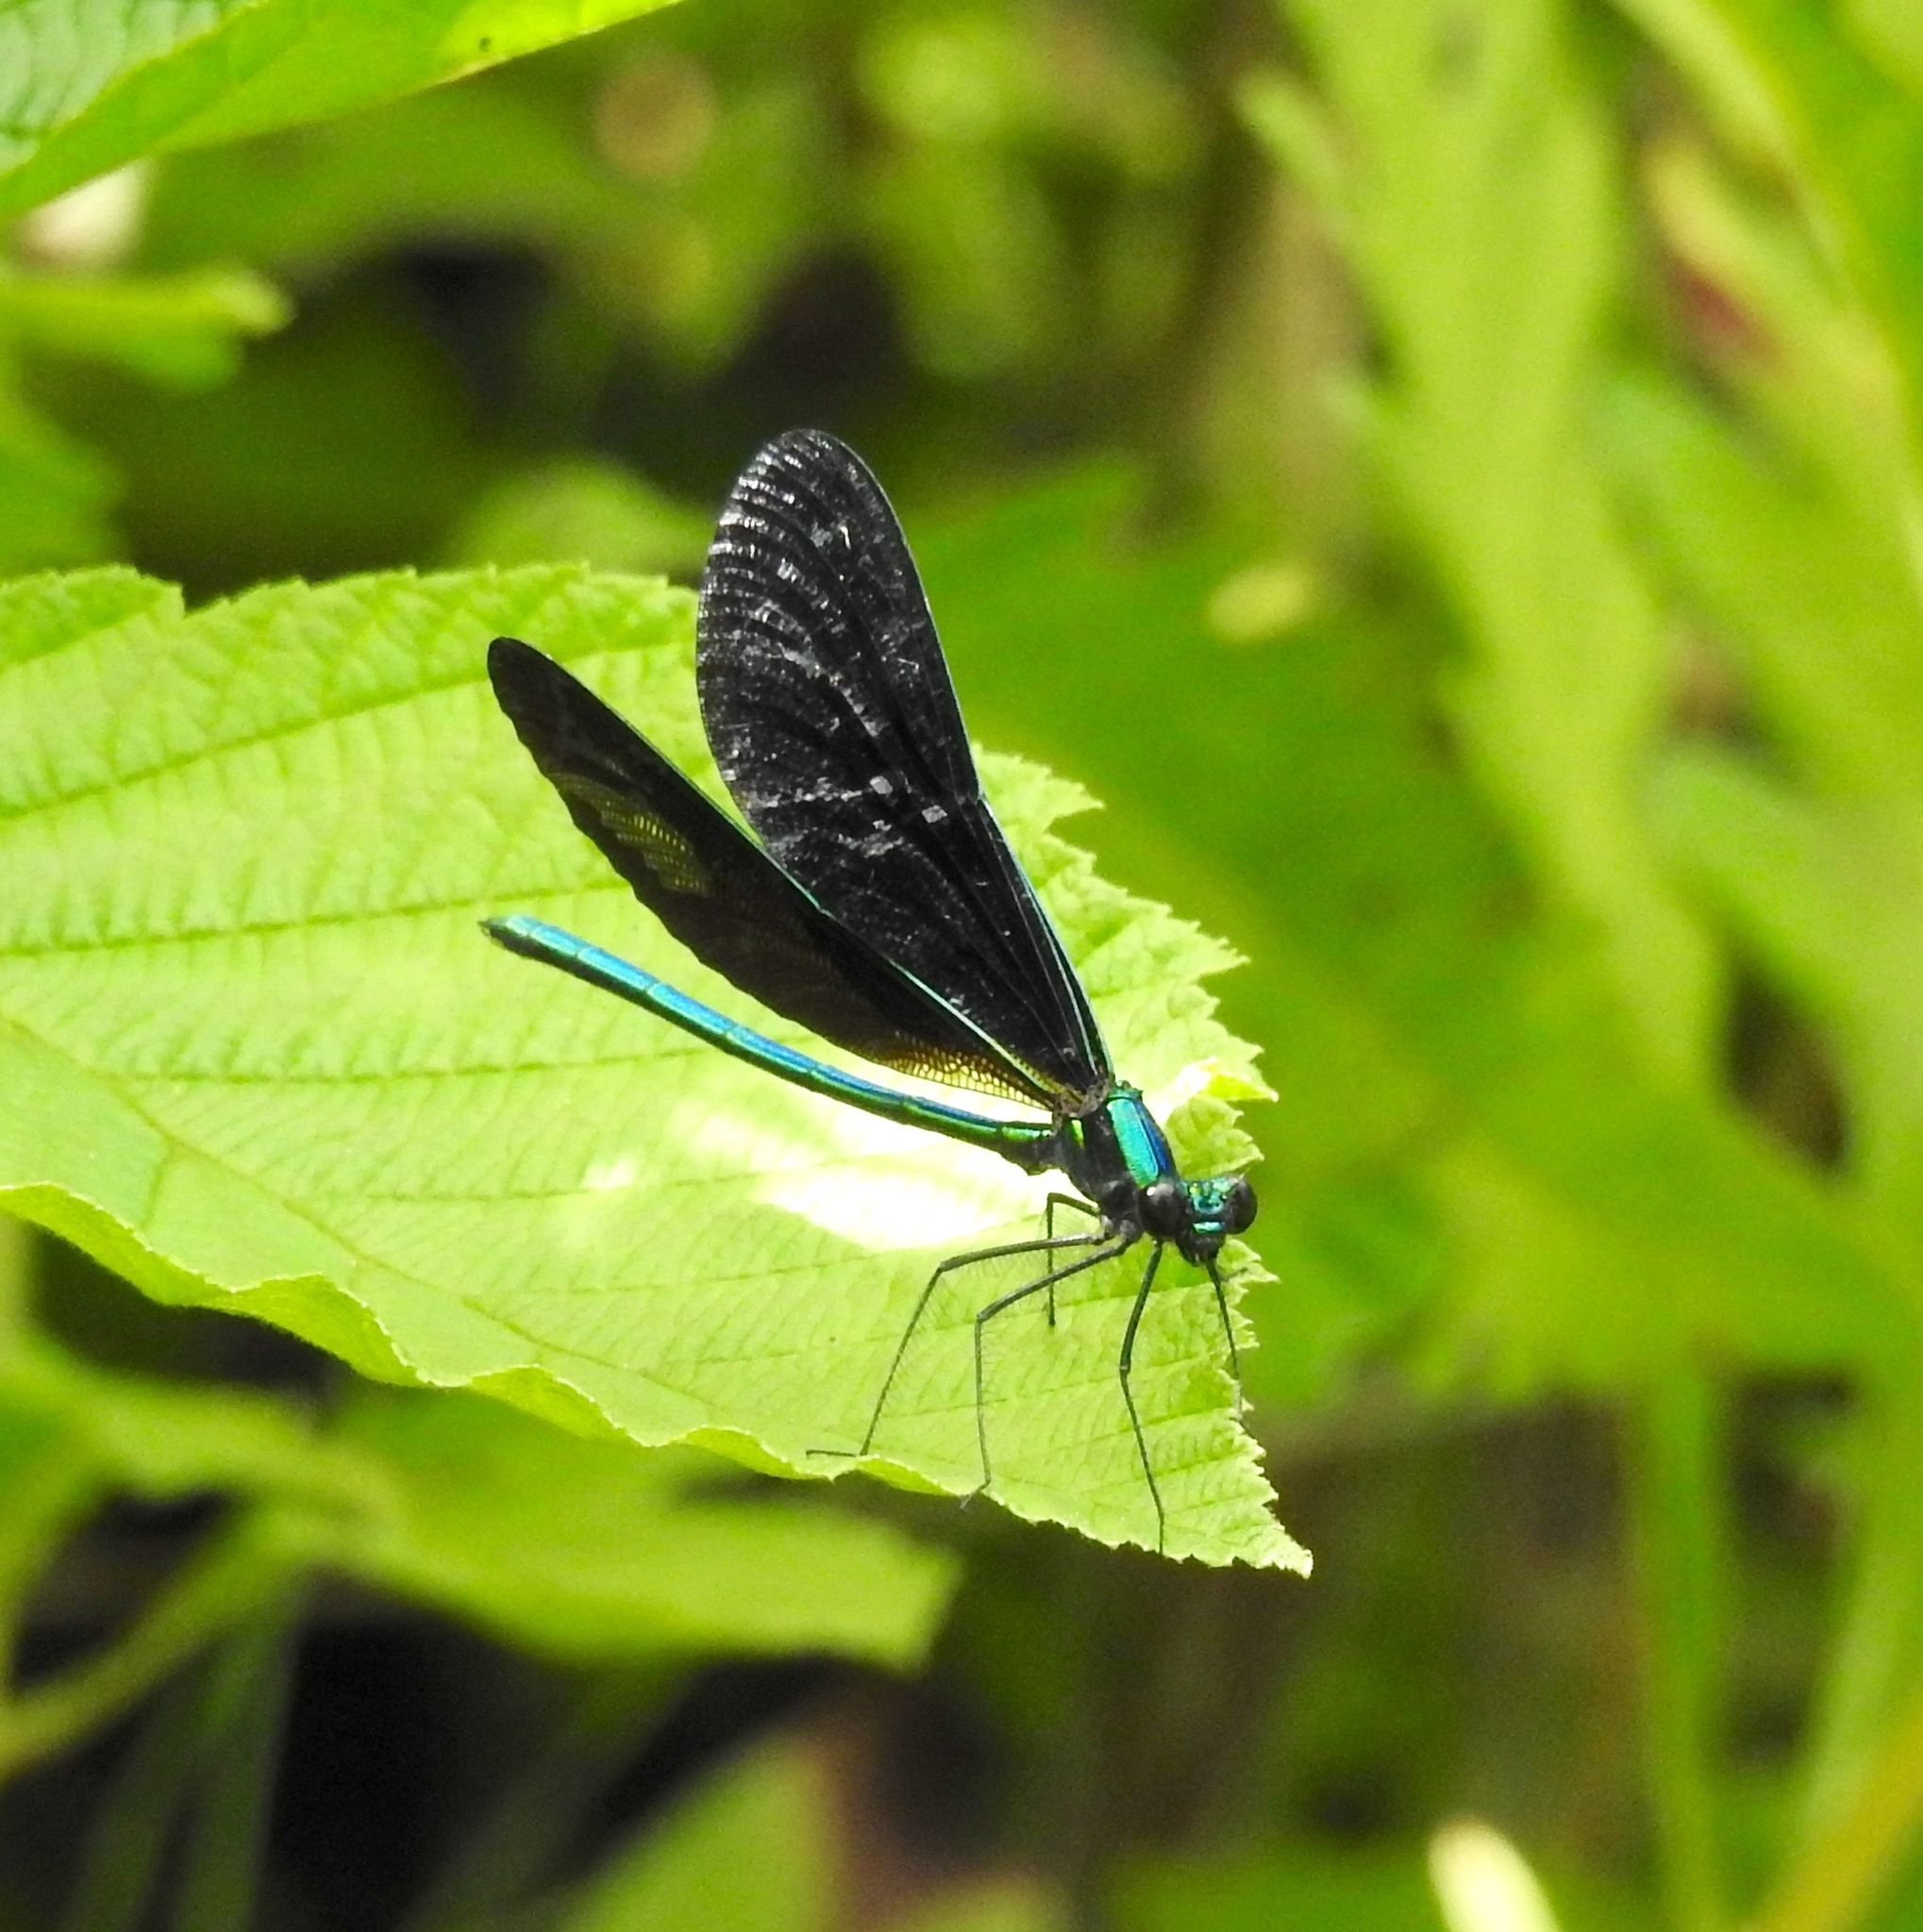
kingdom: Animalia
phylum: Arthropoda
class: Insecta
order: Odonata
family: Calopterygidae
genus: Calopteryx
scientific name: Calopteryx maculata
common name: Ebony jewelwing
